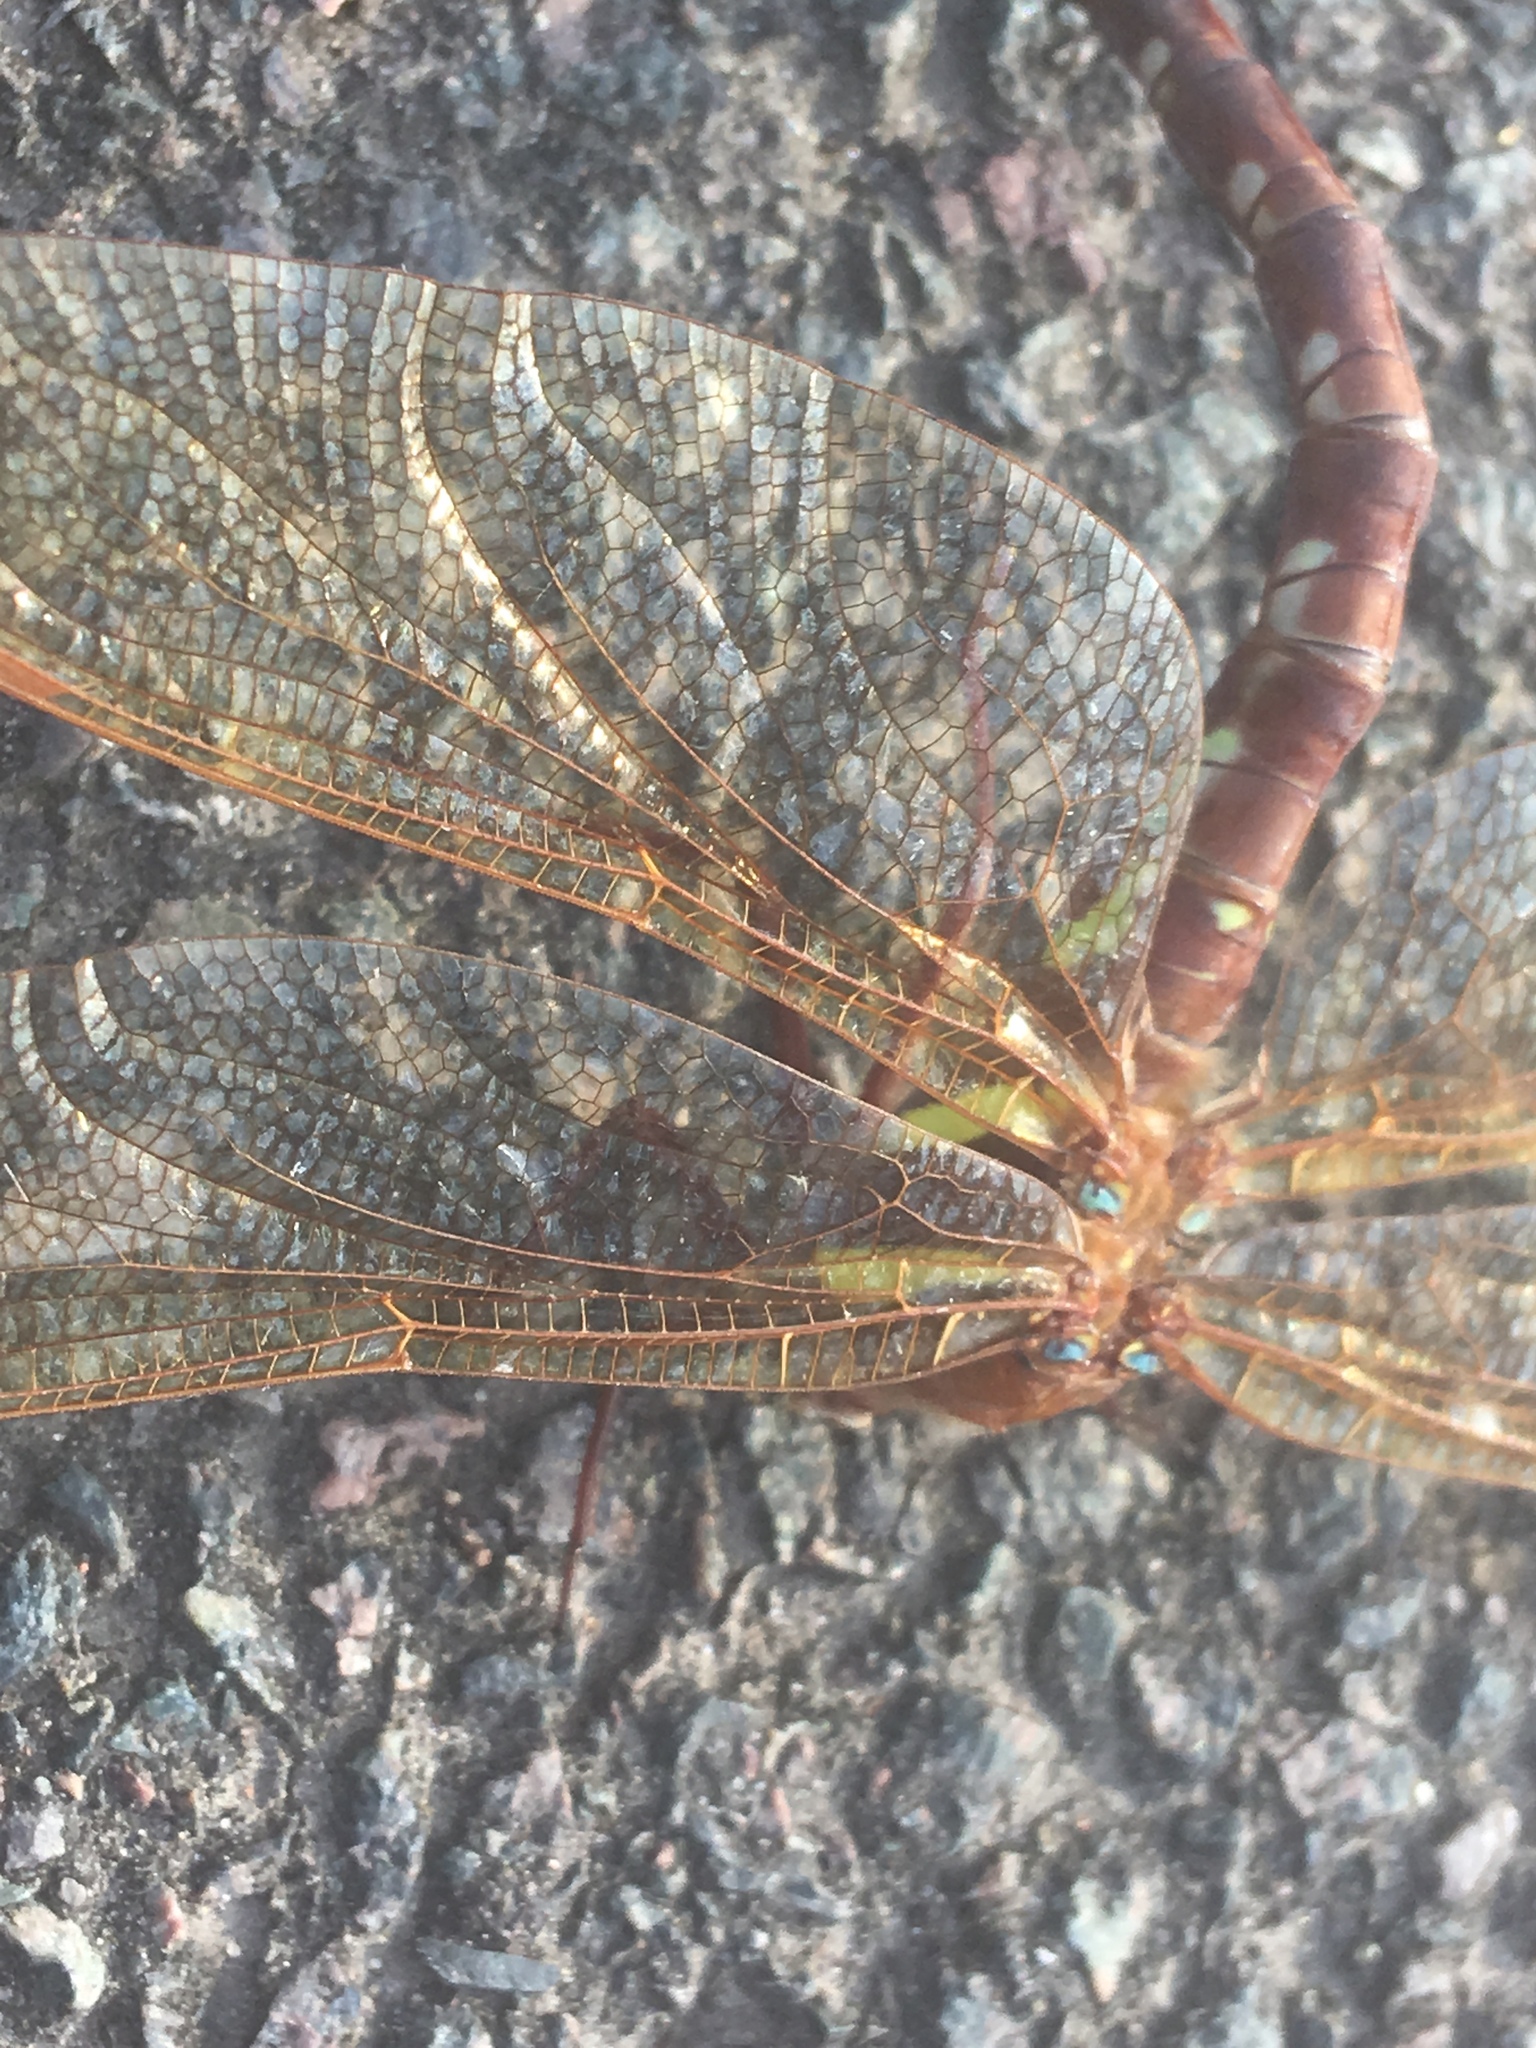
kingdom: Animalia
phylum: Arthropoda
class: Insecta
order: Odonata
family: Aeshnidae
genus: Aeshna
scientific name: Aeshna grandis
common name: Brown hawker
